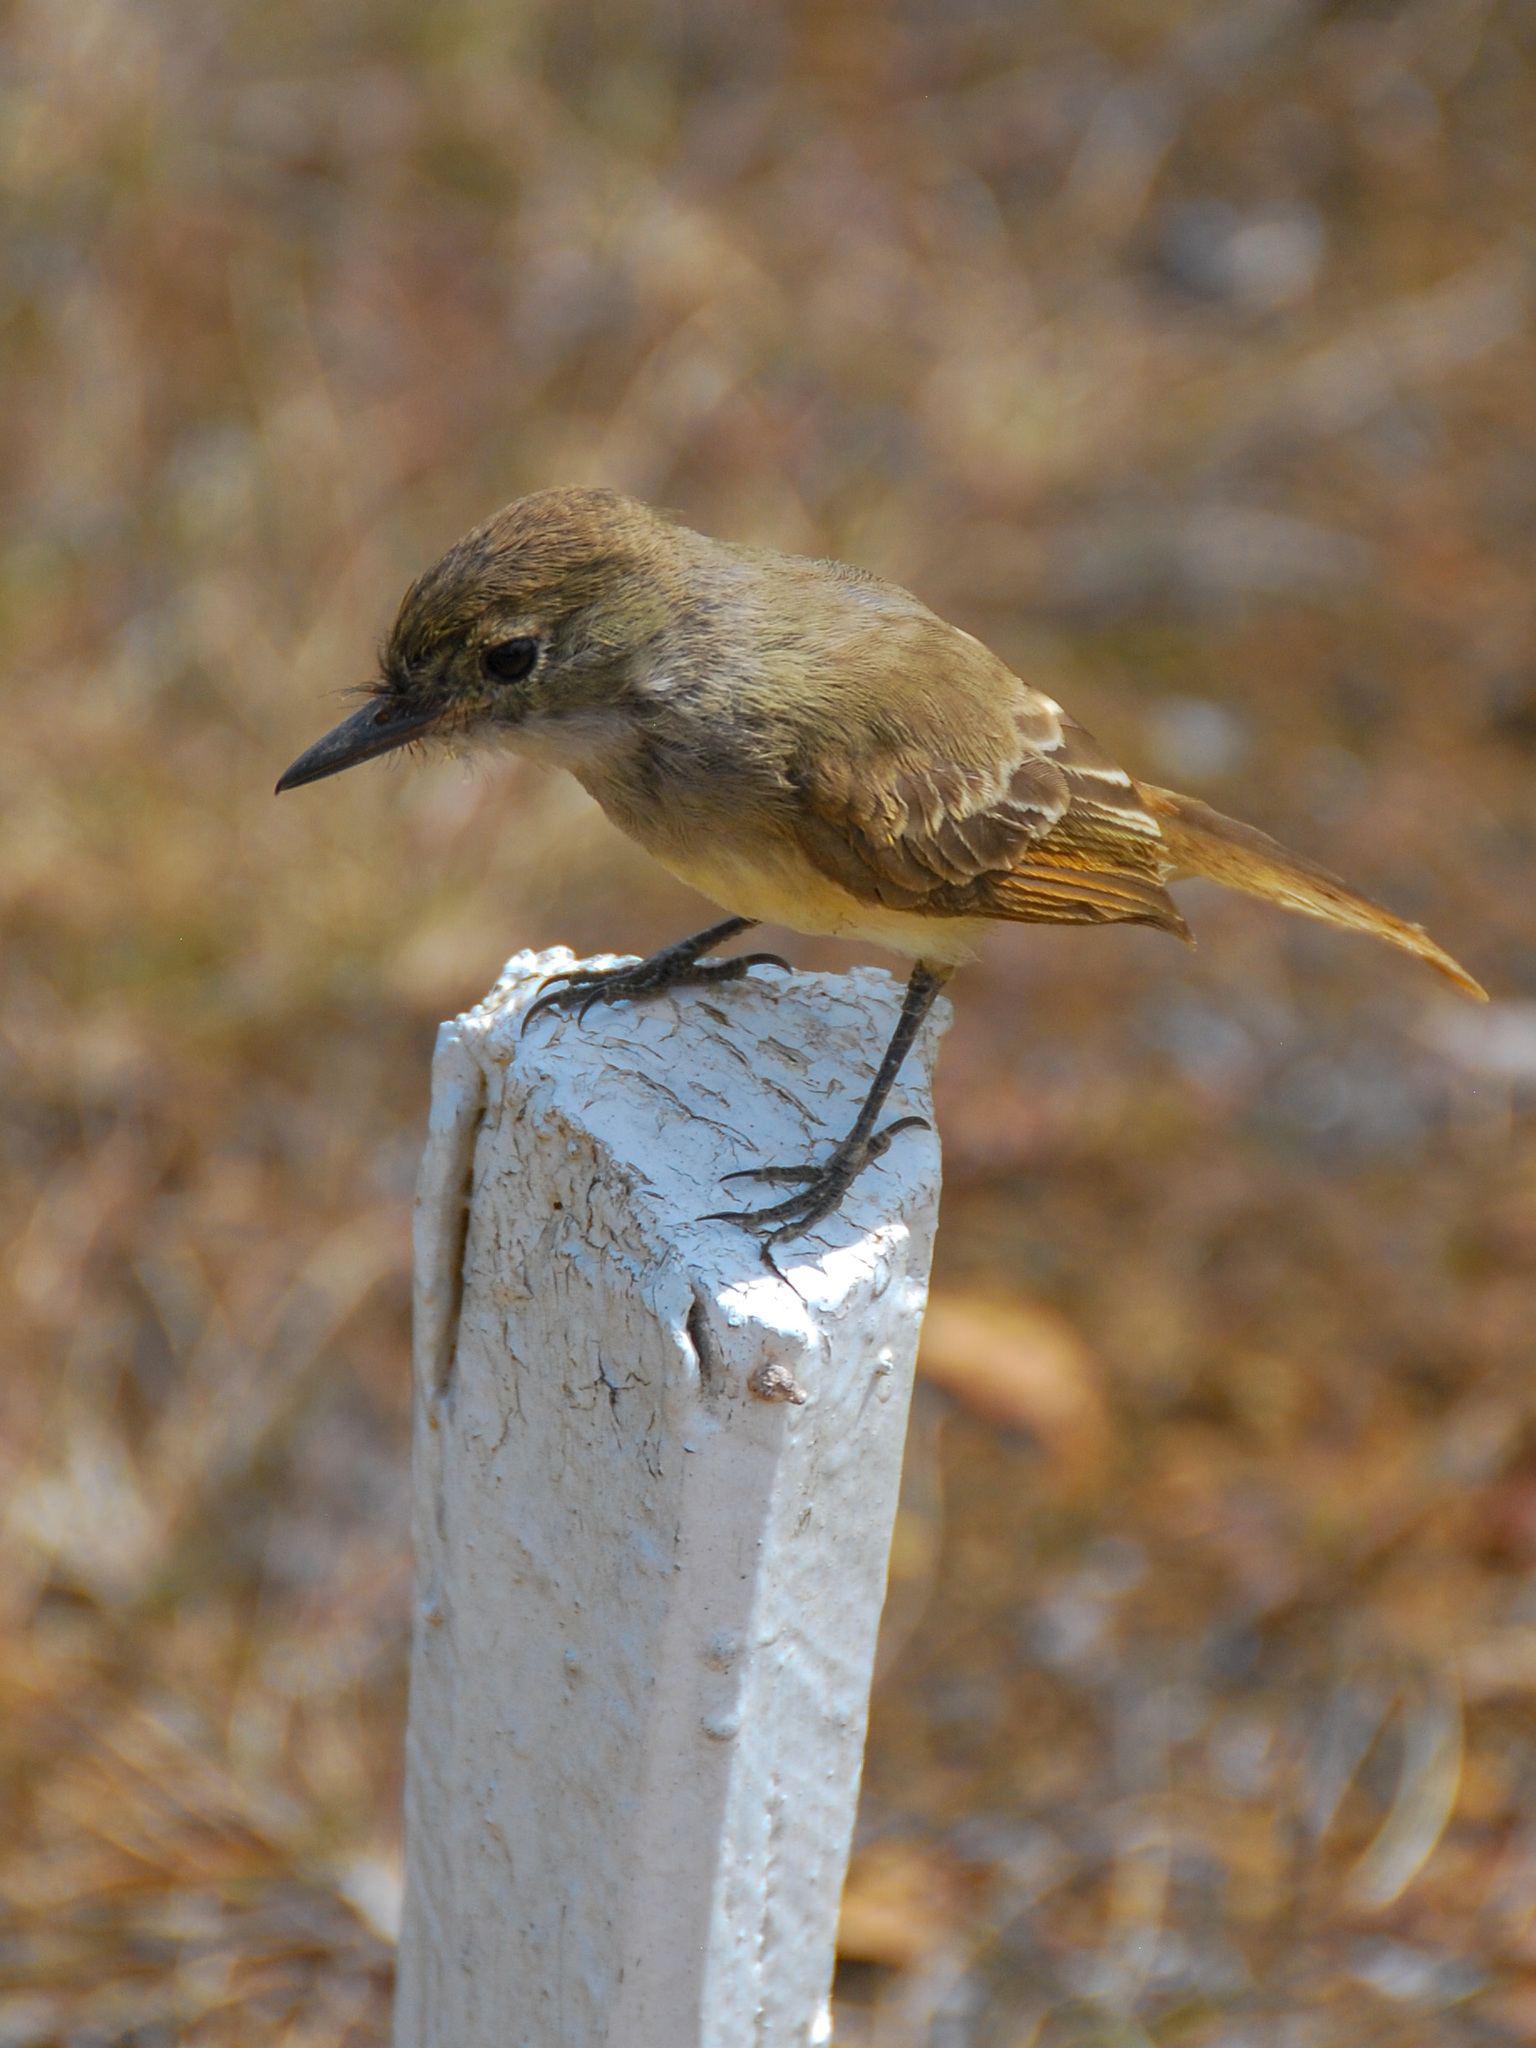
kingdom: Animalia
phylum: Chordata
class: Aves
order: Passeriformes
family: Tyrannidae
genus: Myiarchus
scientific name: Myiarchus magnirostris
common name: Galapagos flycatcher
